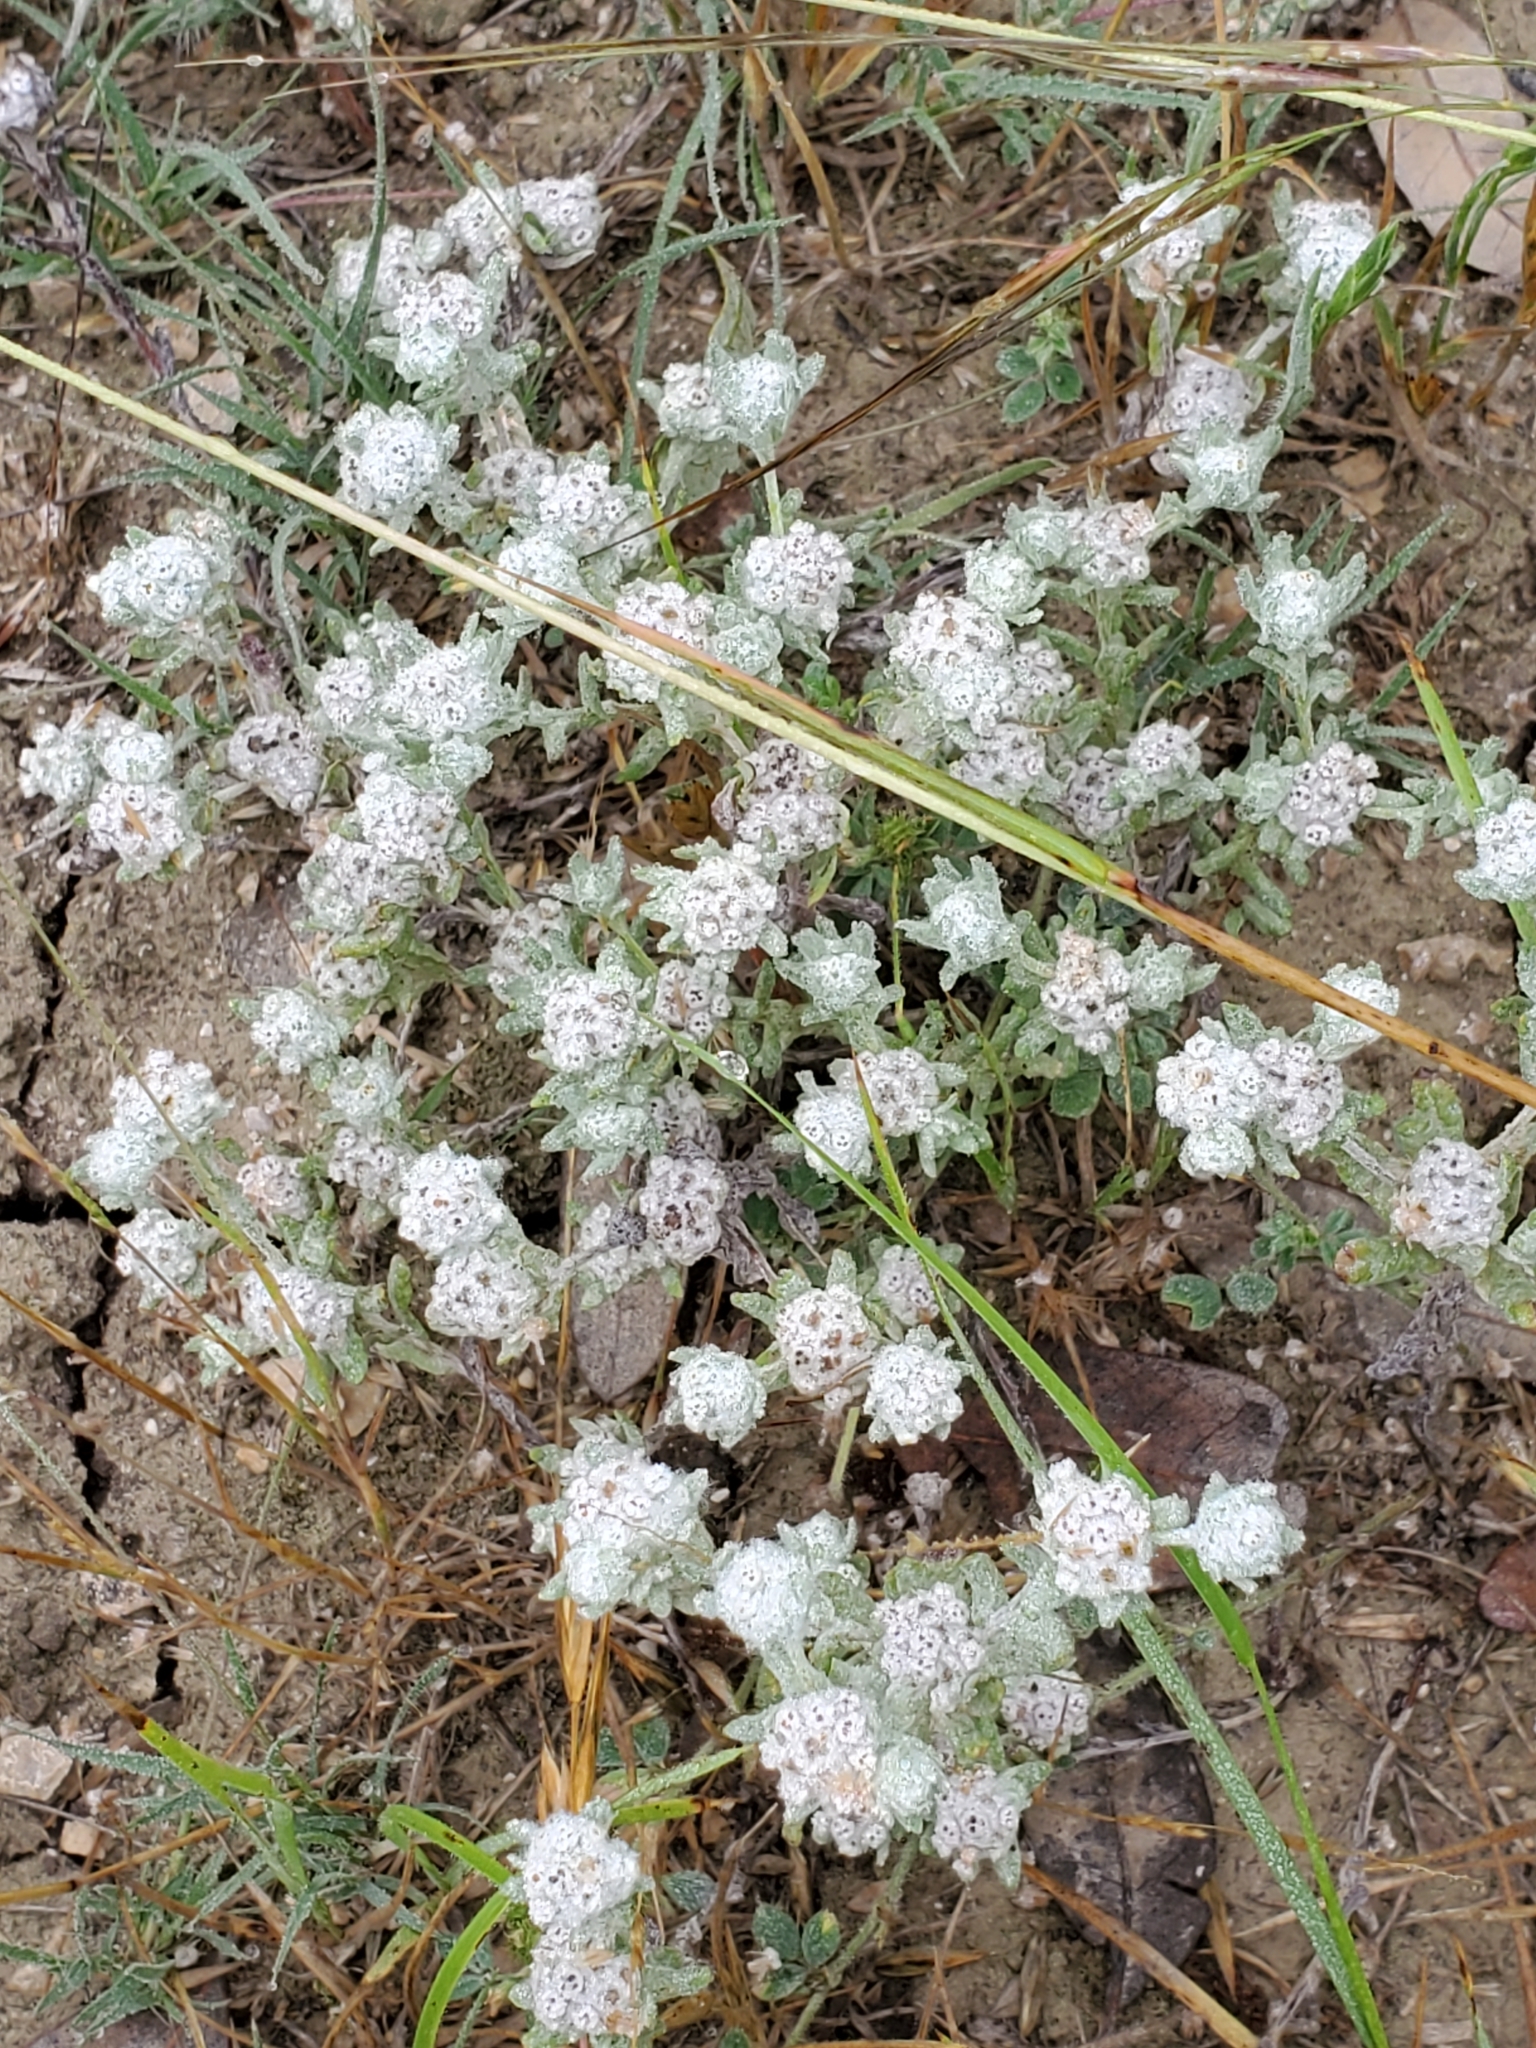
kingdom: Plantae
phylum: Tracheophyta
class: Magnoliopsida
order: Asterales
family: Asteraceae
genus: Diaperia
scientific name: Diaperia verna
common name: Many-stem rabbit-tobacco
